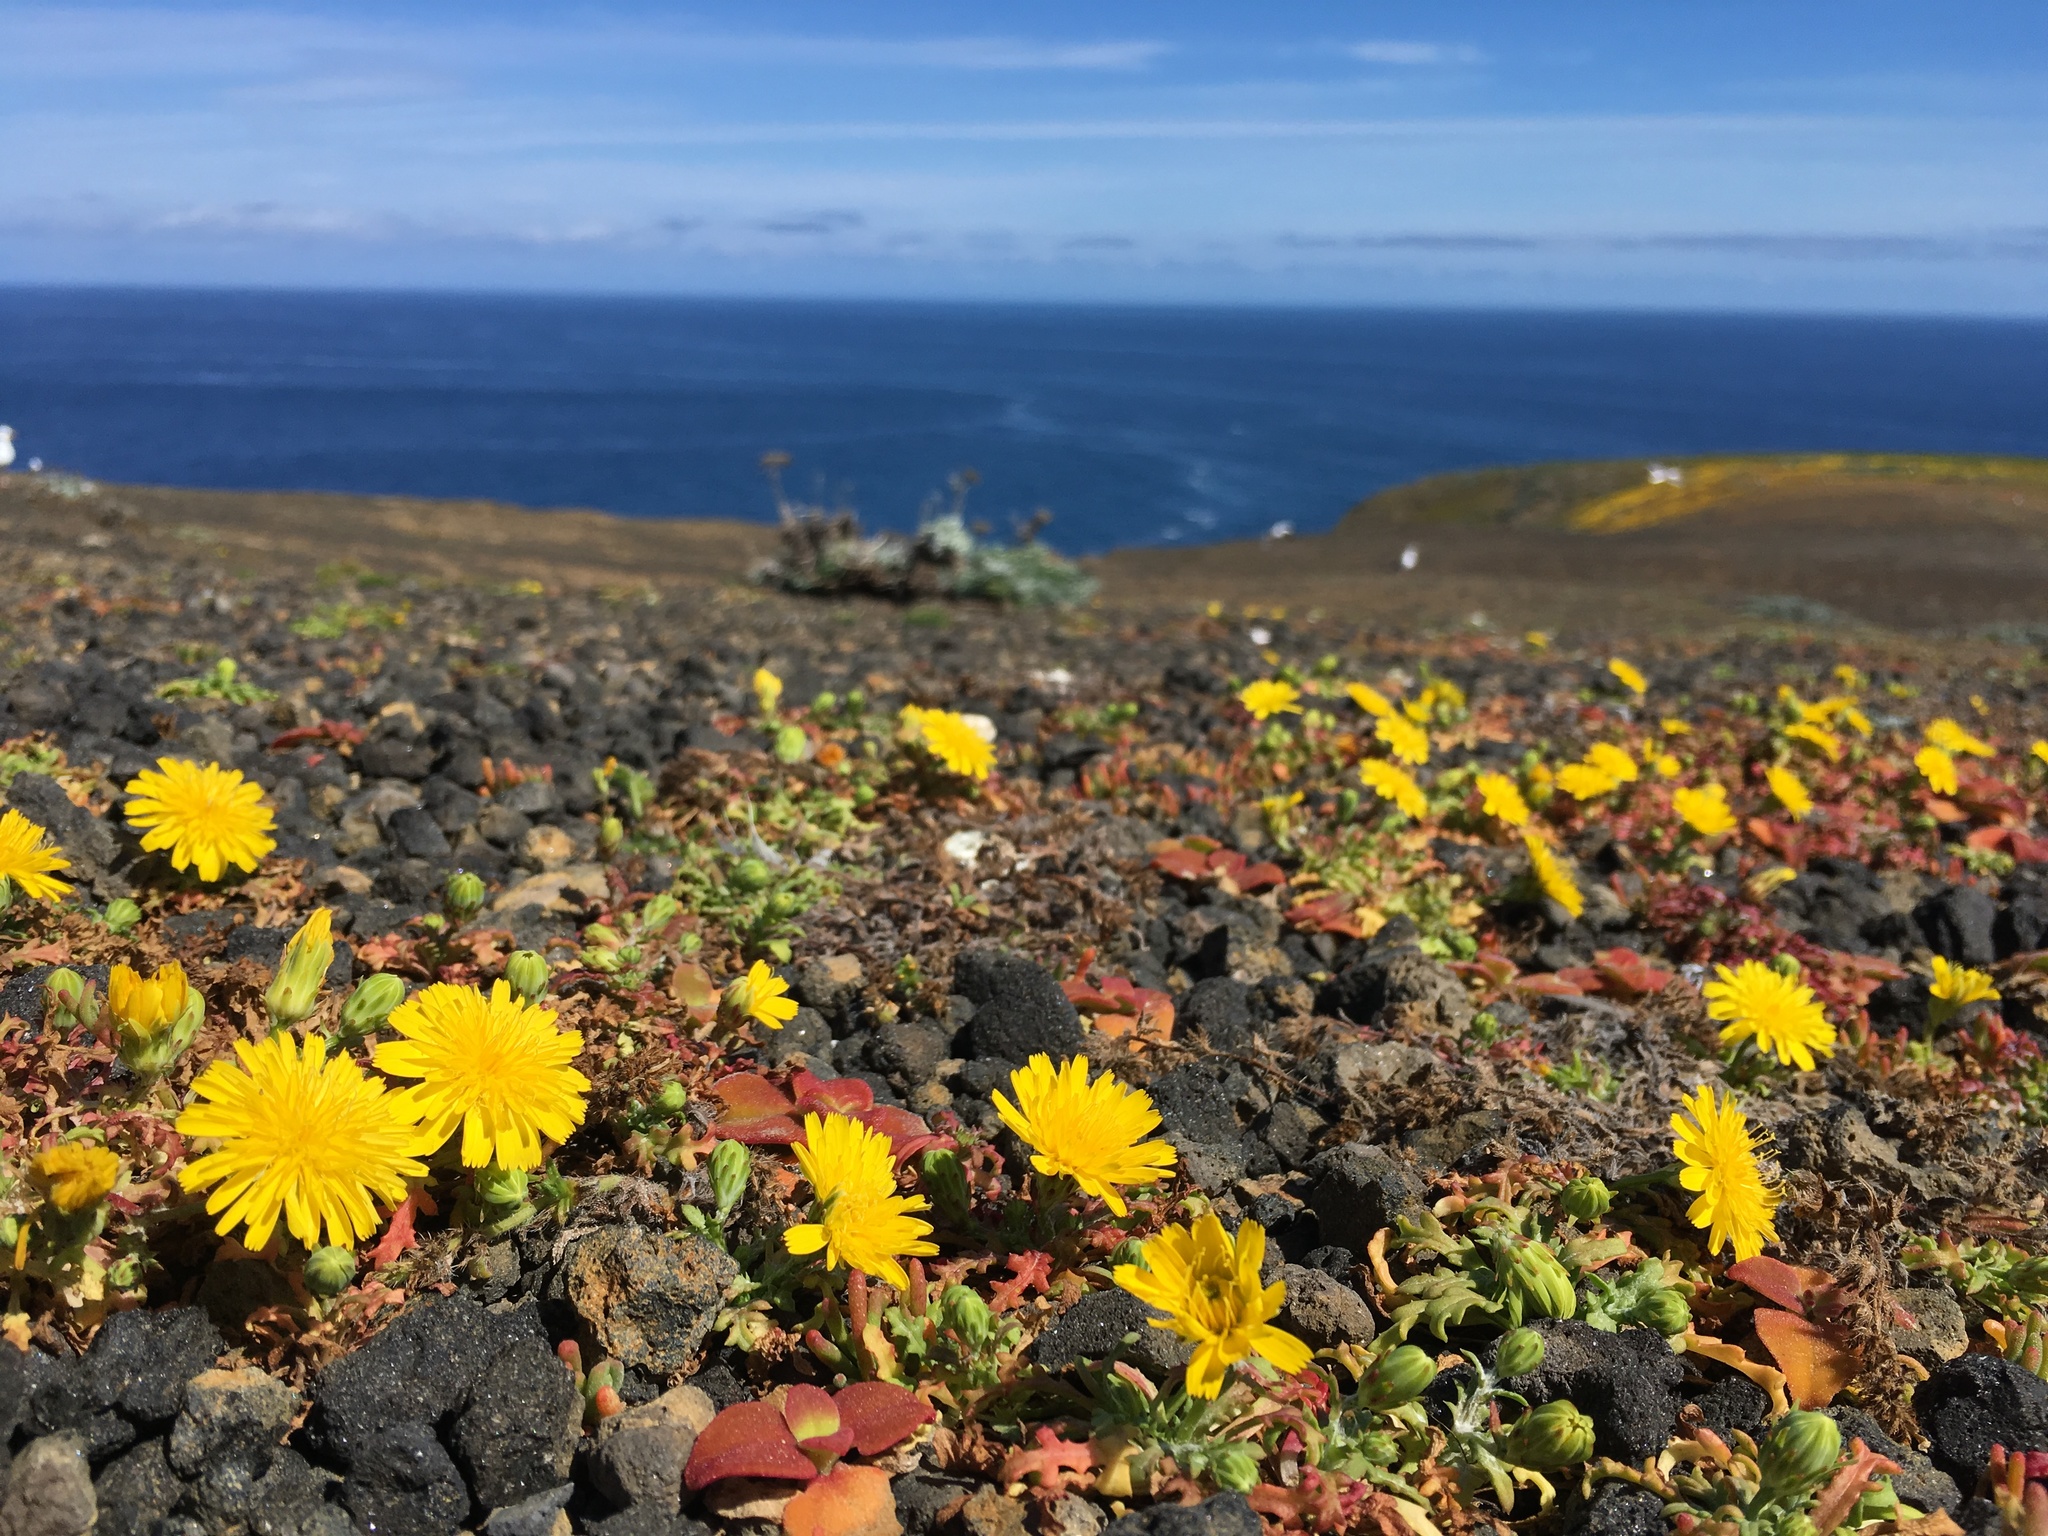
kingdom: Plantae
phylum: Tracheophyta
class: Magnoliopsida
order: Asterales
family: Asteraceae
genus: Malacothrix
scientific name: Malacothrix foliosa
